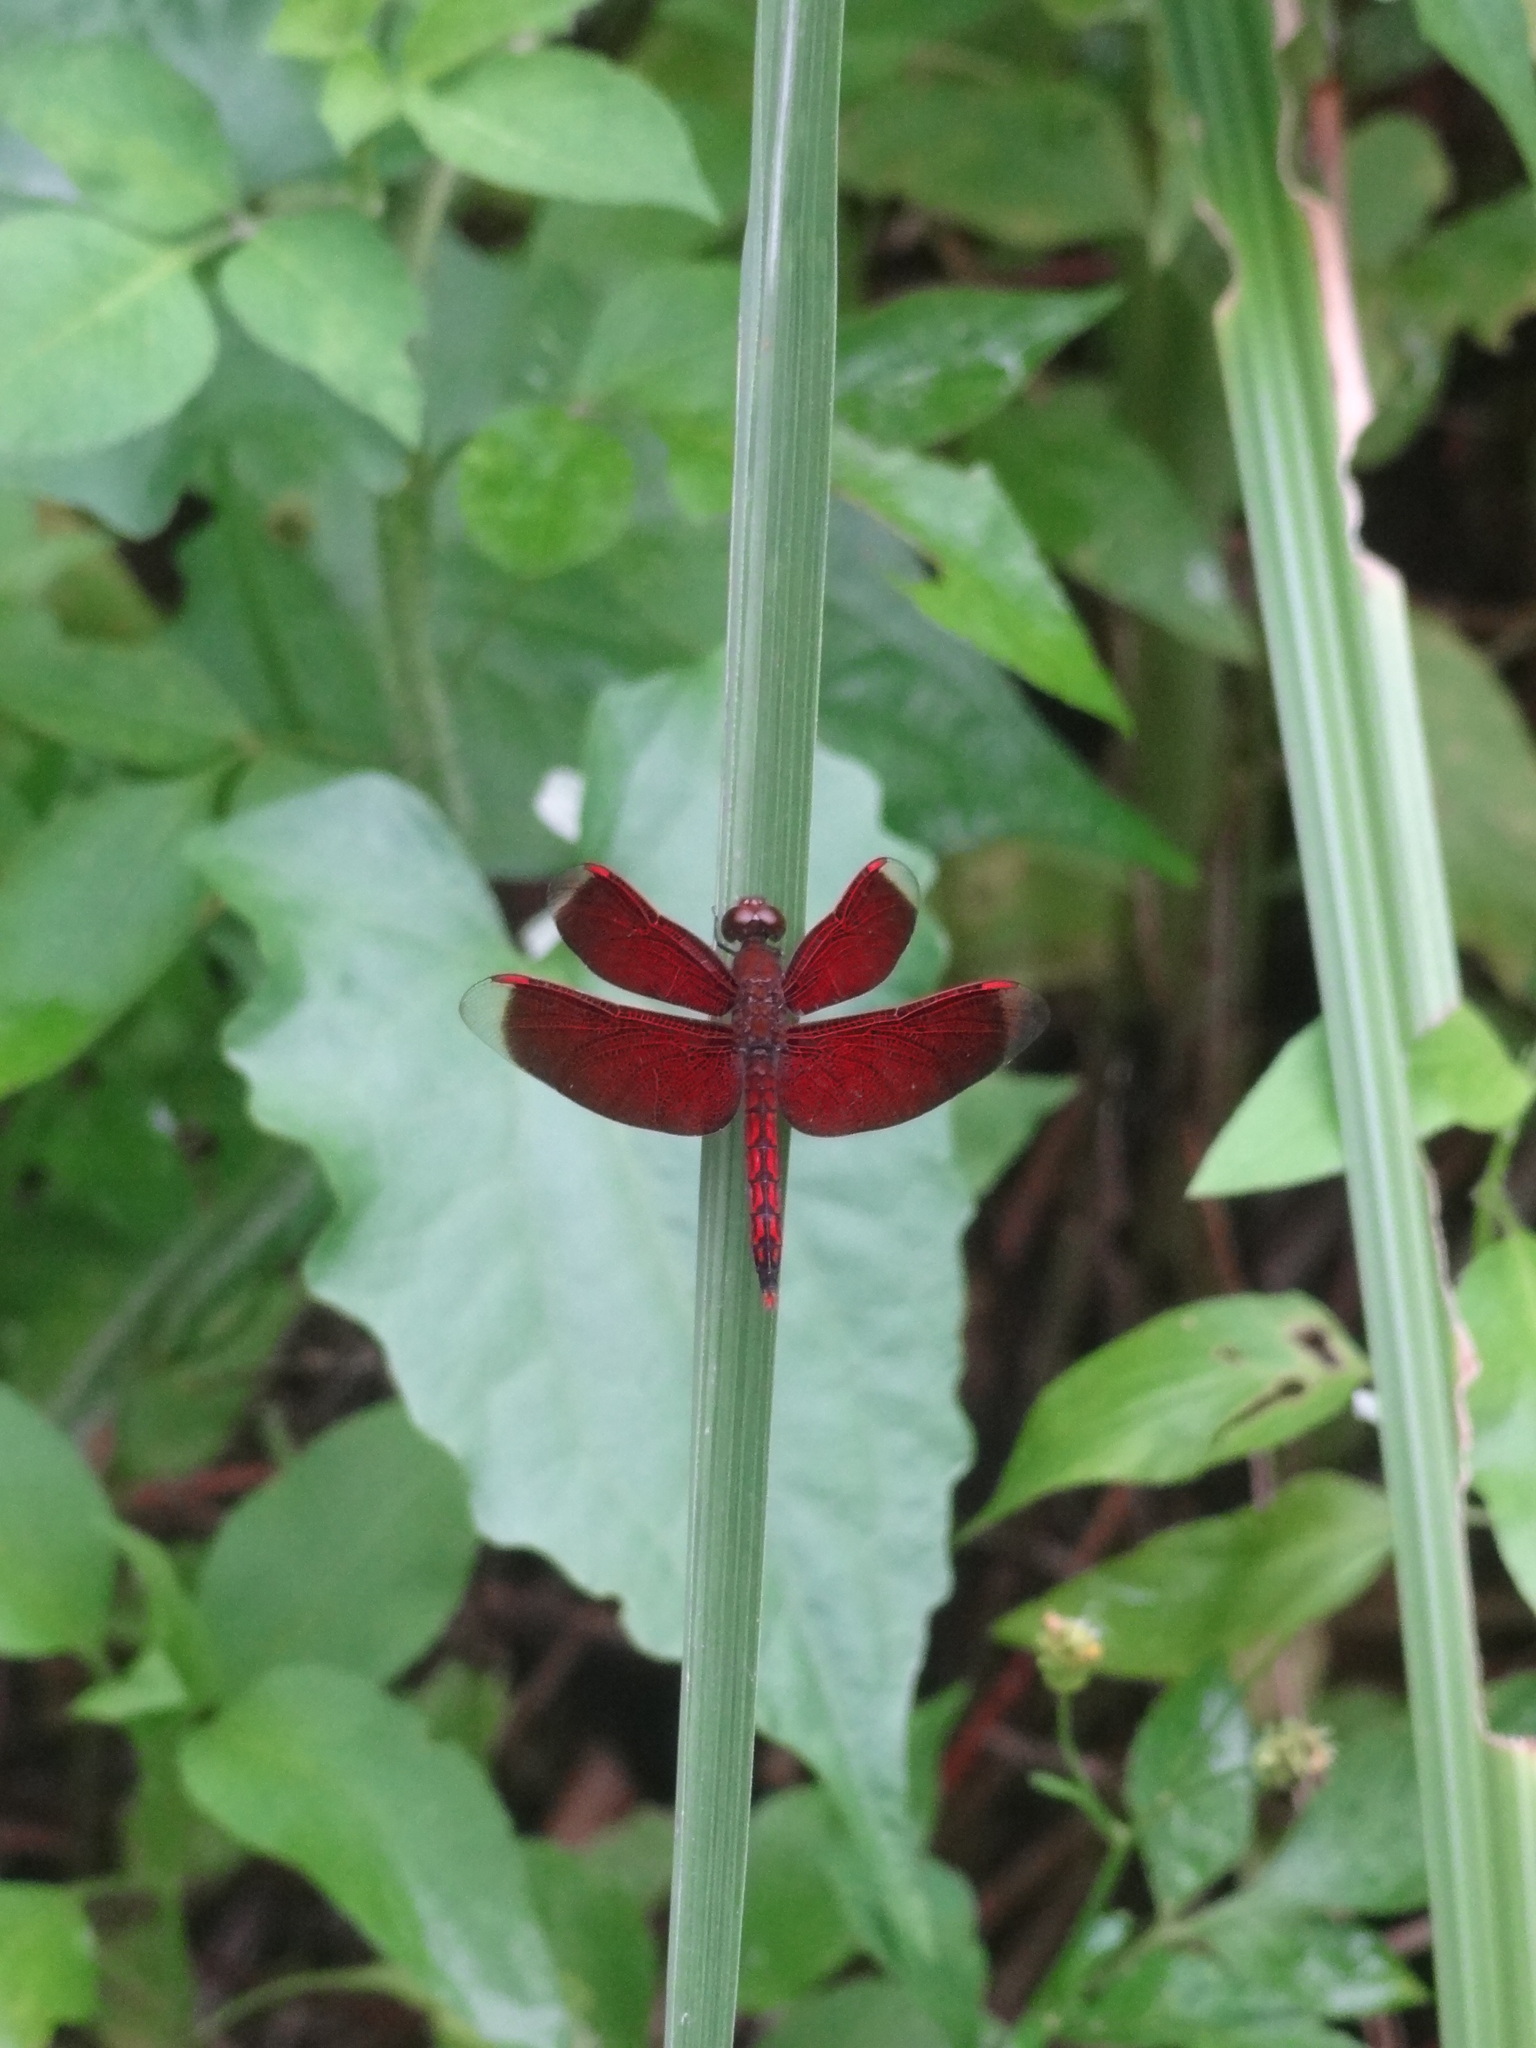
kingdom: Animalia
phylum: Arthropoda
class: Insecta
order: Odonata
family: Libellulidae
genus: Neurothemis
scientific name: Neurothemis taiwanensis
